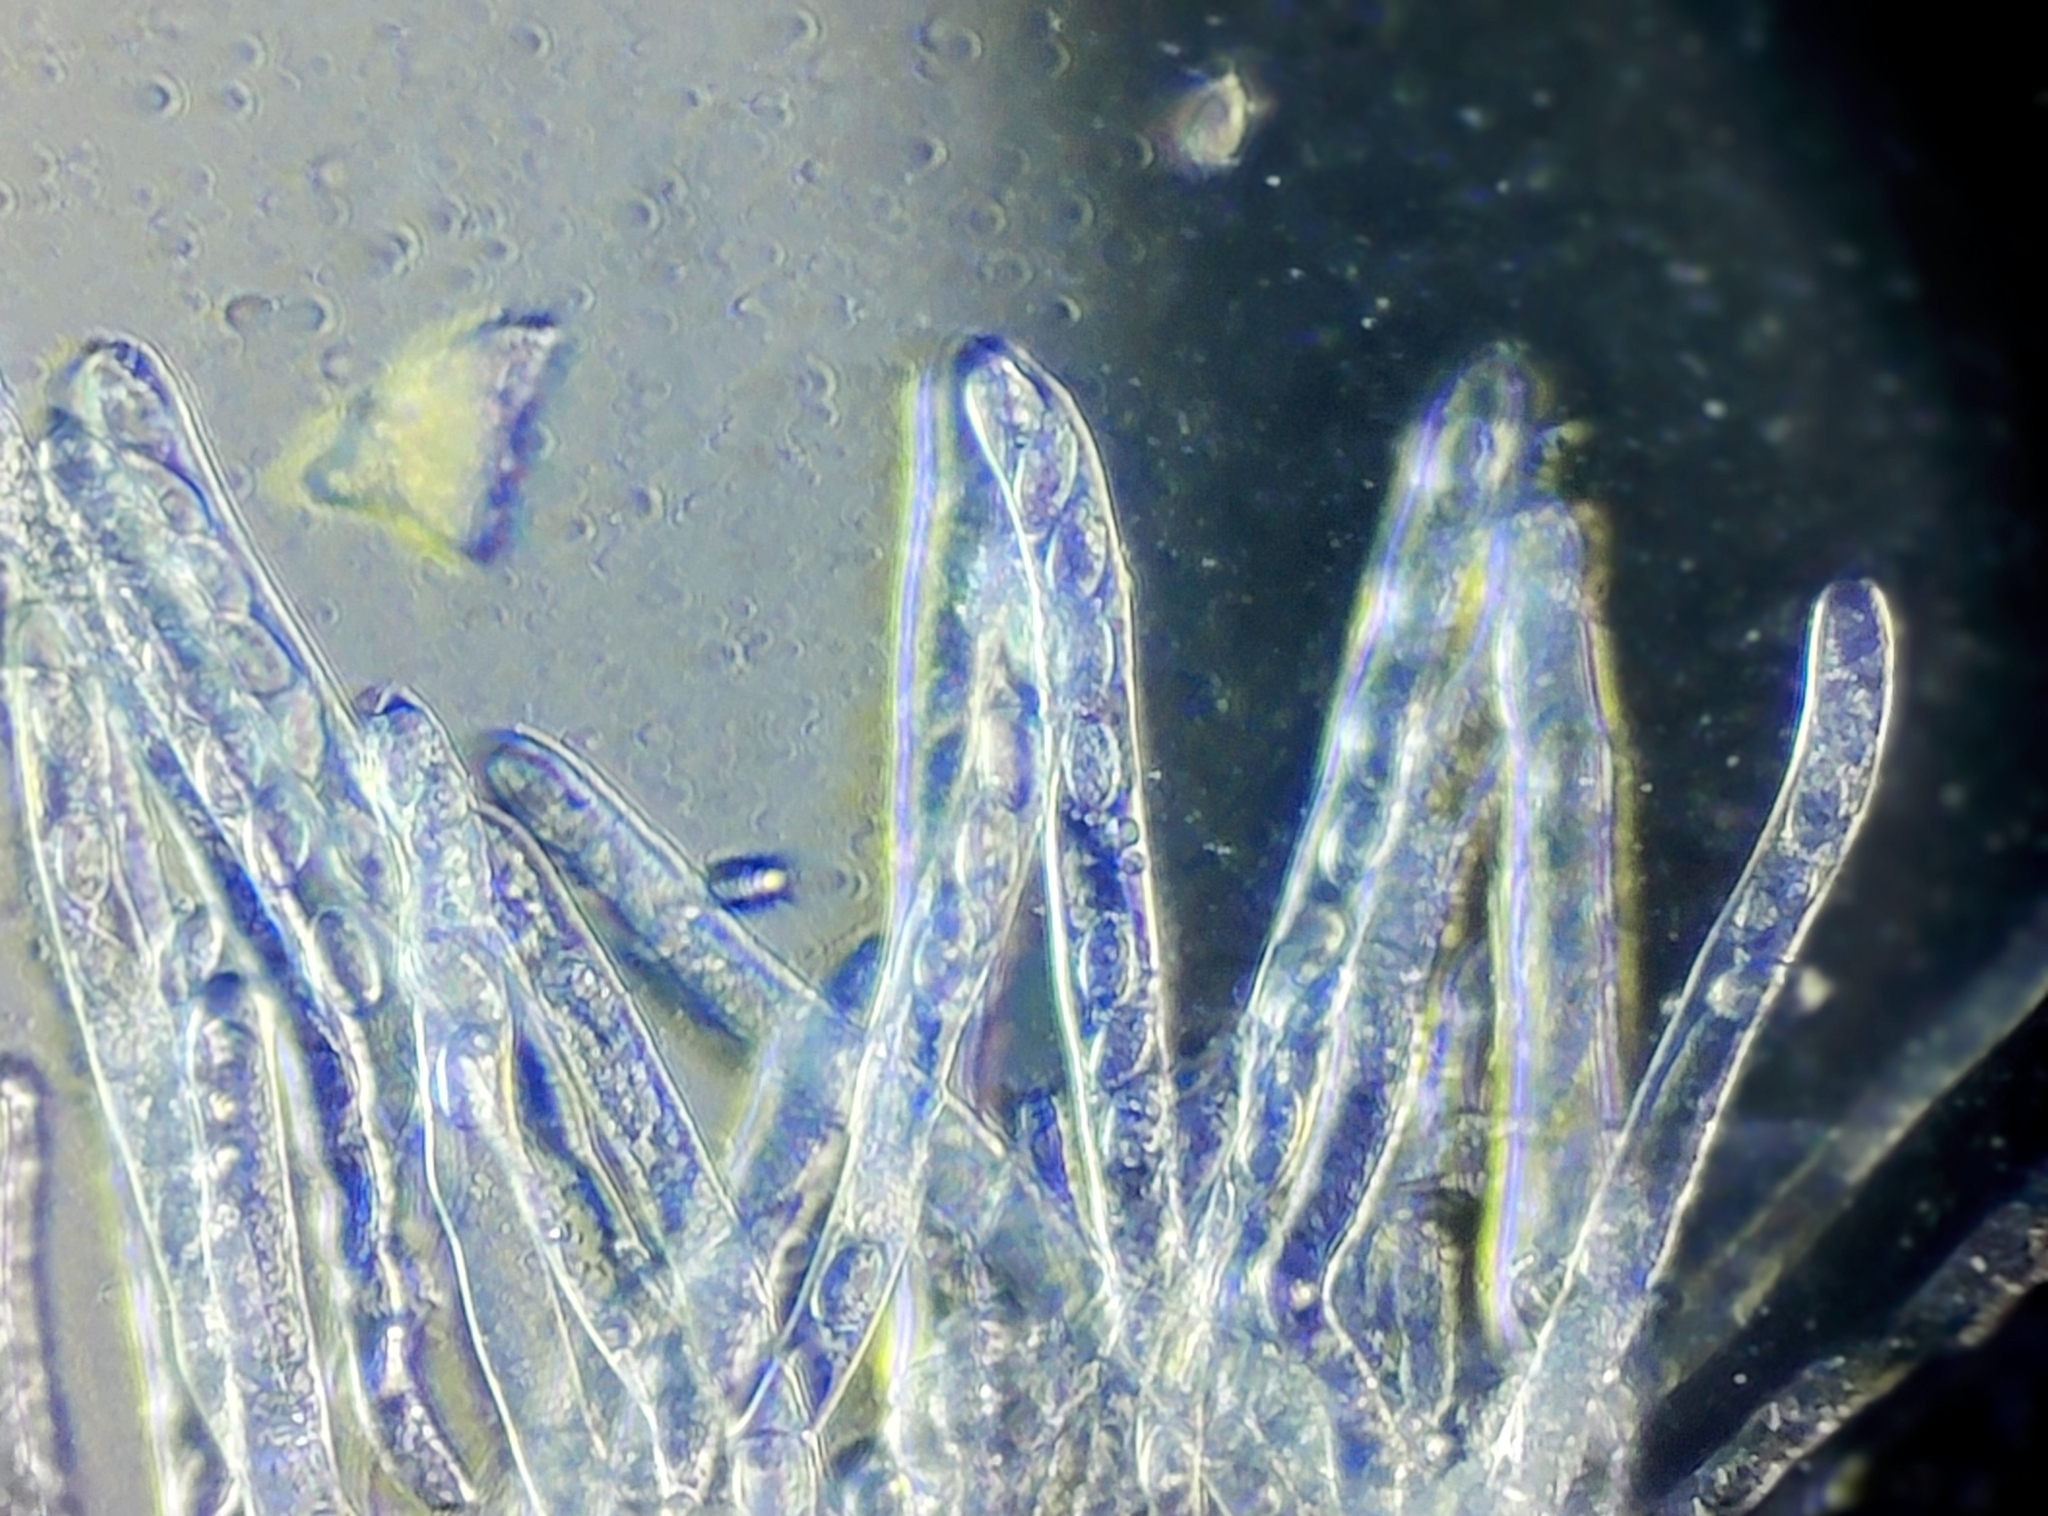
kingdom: Fungi
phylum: Ascomycota
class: Pezizomycetes
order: Pezizales
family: Morchellaceae
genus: Morchella
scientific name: Morchella diminutiva
